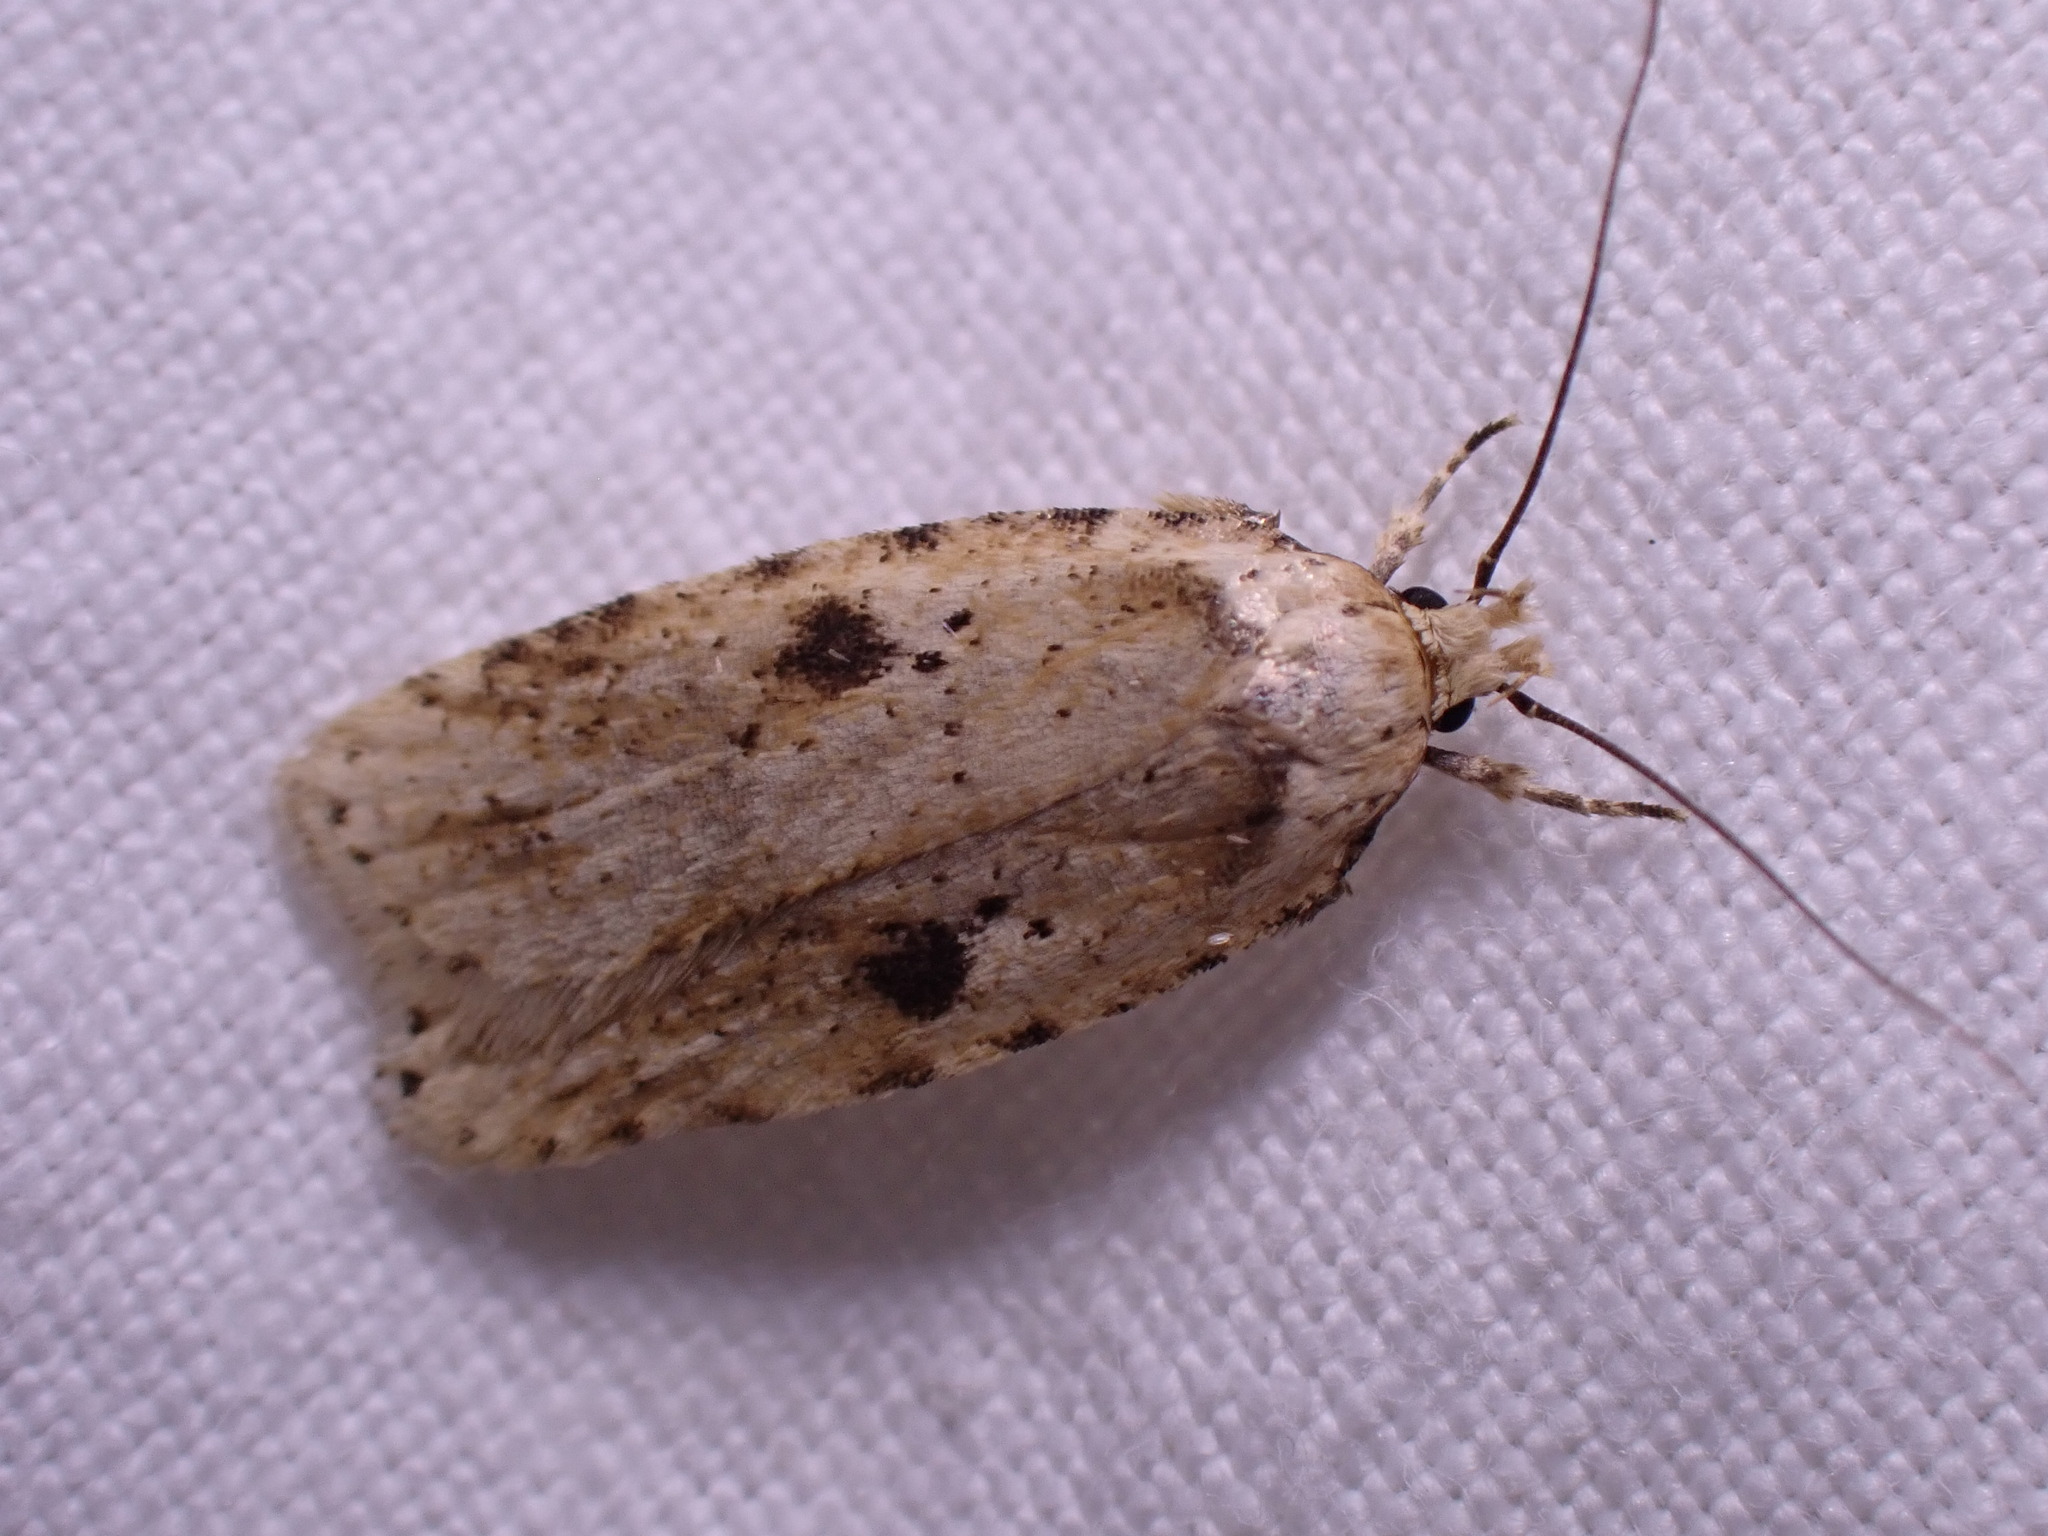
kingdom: Animalia
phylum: Arthropoda
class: Insecta
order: Lepidoptera
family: Depressariidae
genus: Agonopterix
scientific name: Agonopterix arenella
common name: Brindled flat-body
